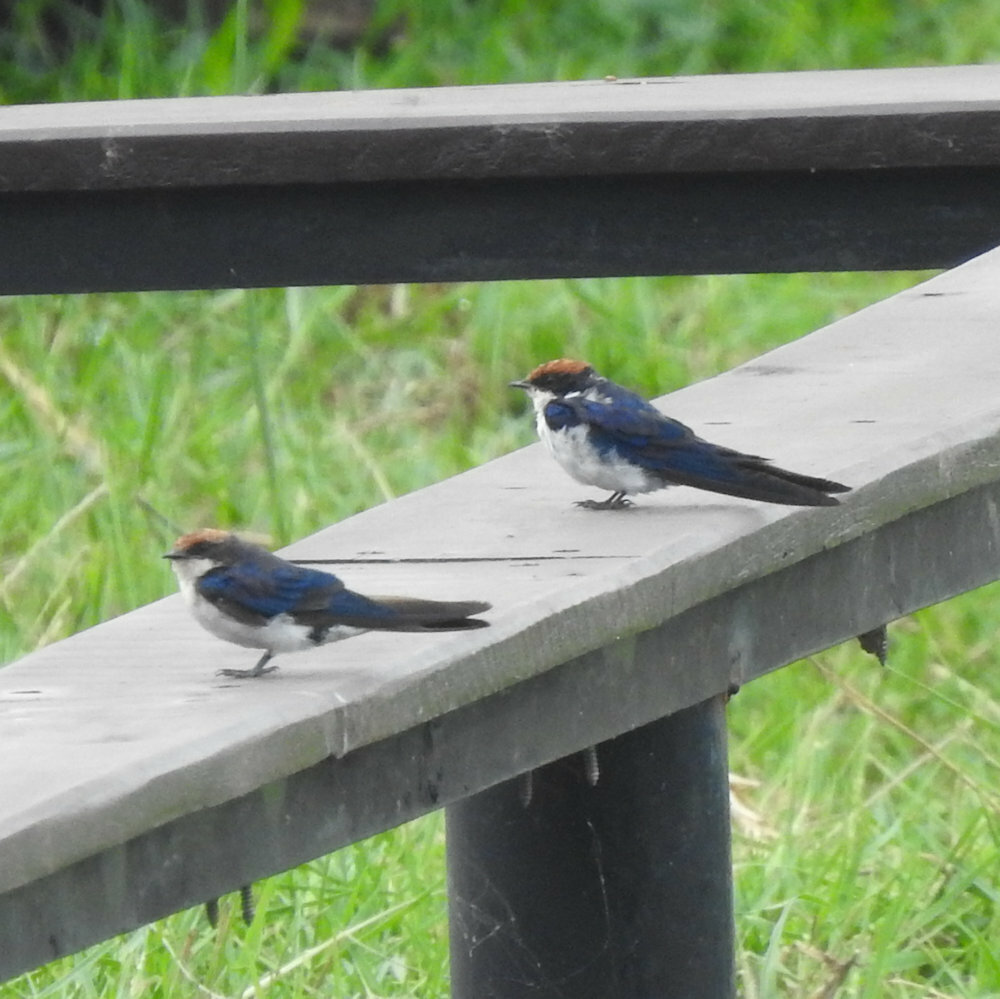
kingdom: Animalia
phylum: Chordata
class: Aves
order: Passeriformes
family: Hirundinidae
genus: Hirundo
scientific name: Hirundo smithii
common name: Wire-tailed swallow
